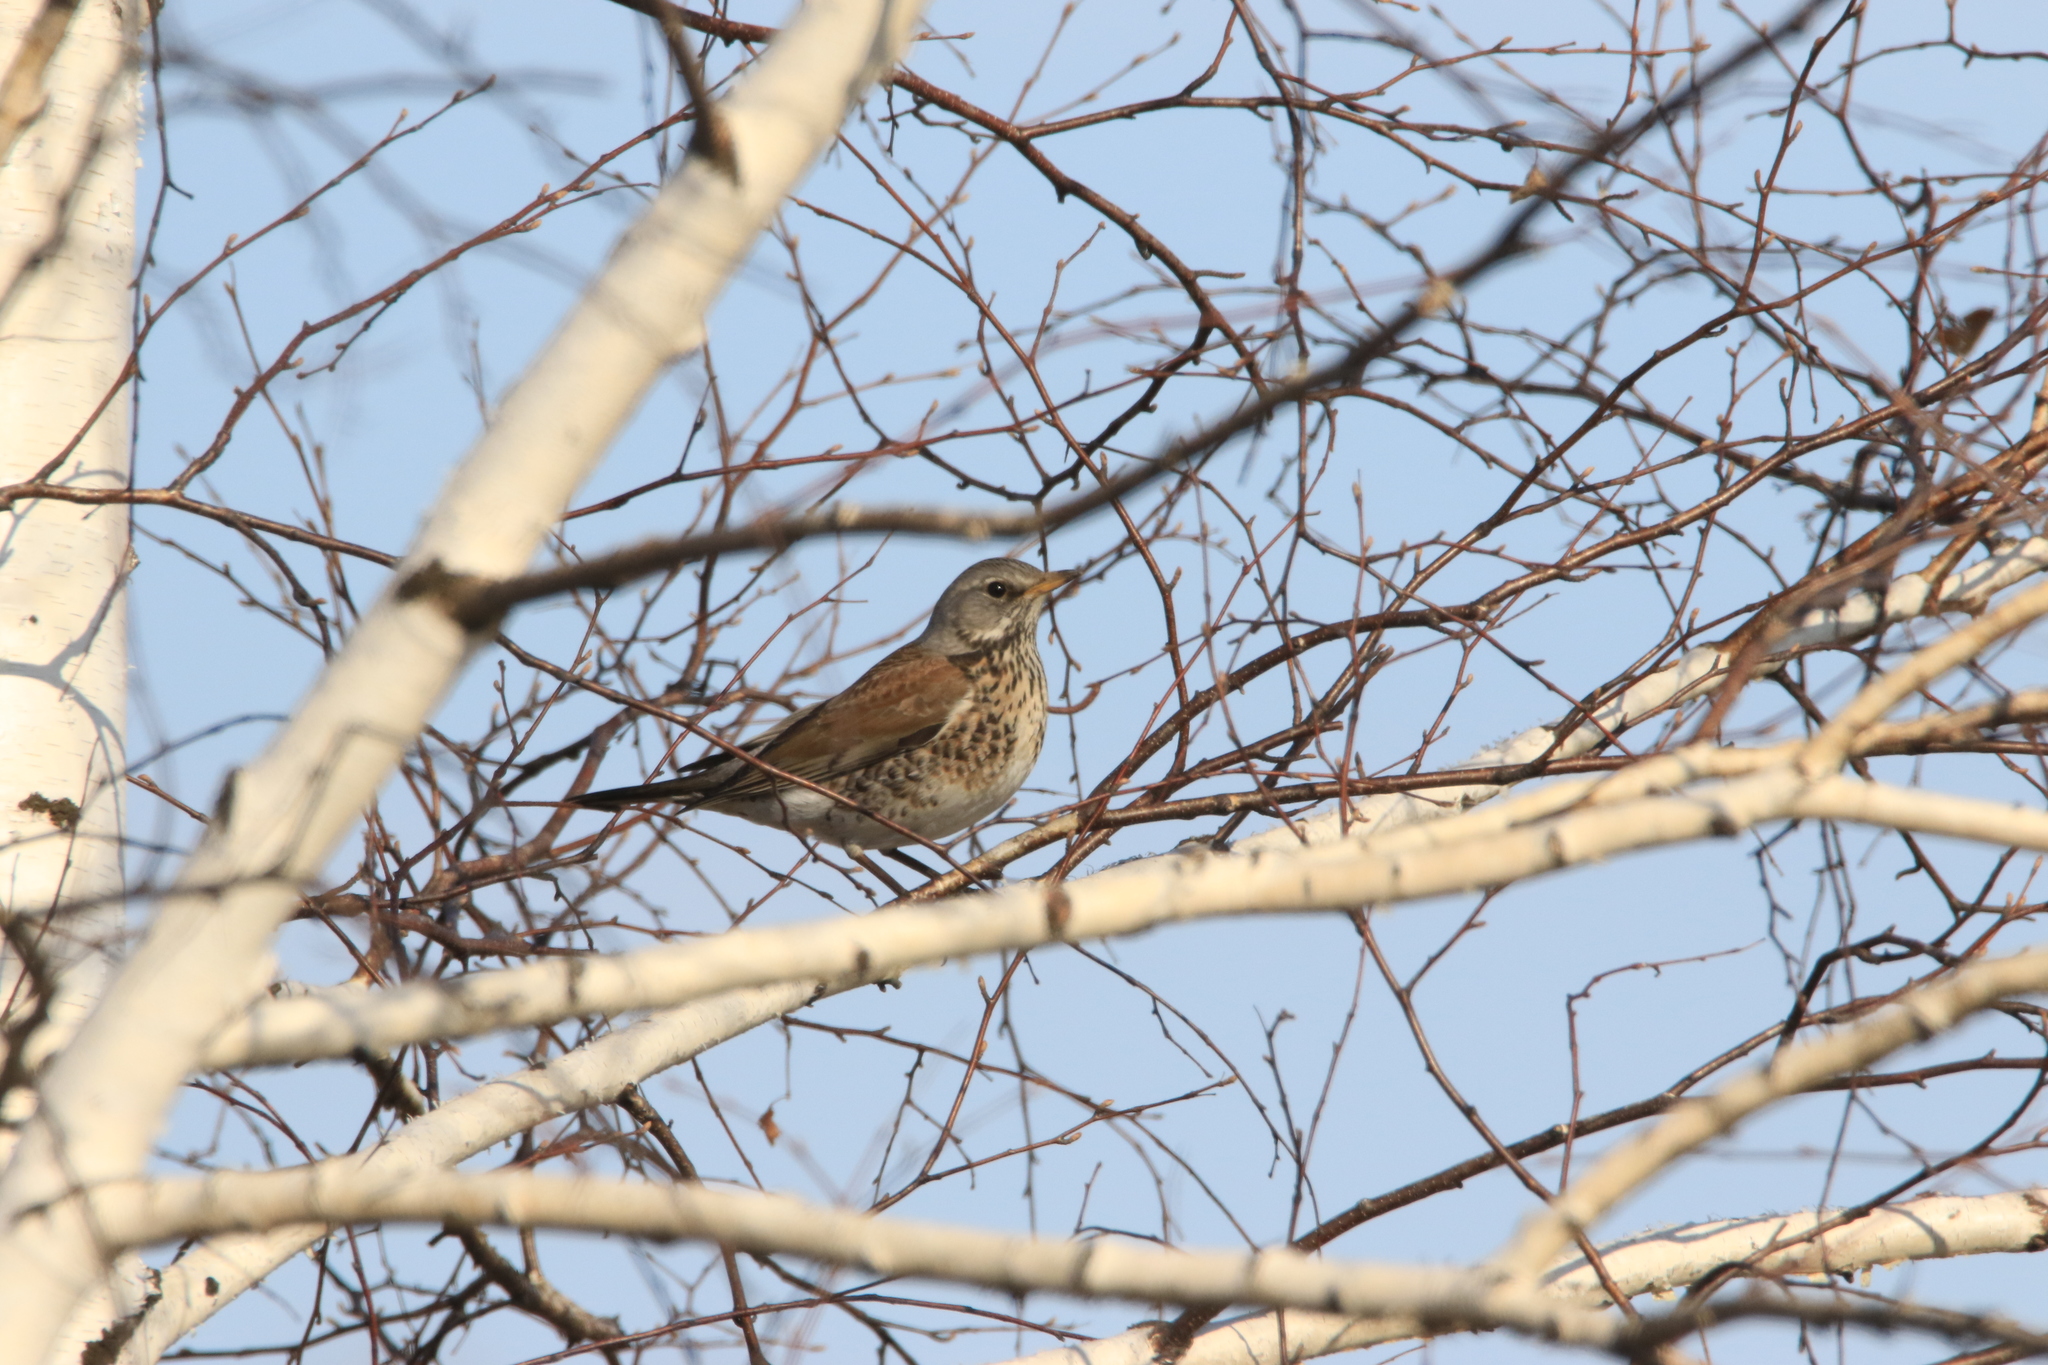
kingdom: Animalia
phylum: Chordata
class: Aves
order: Passeriformes
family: Turdidae
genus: Turdus
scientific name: Turdus pilaris
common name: Fieldfare
